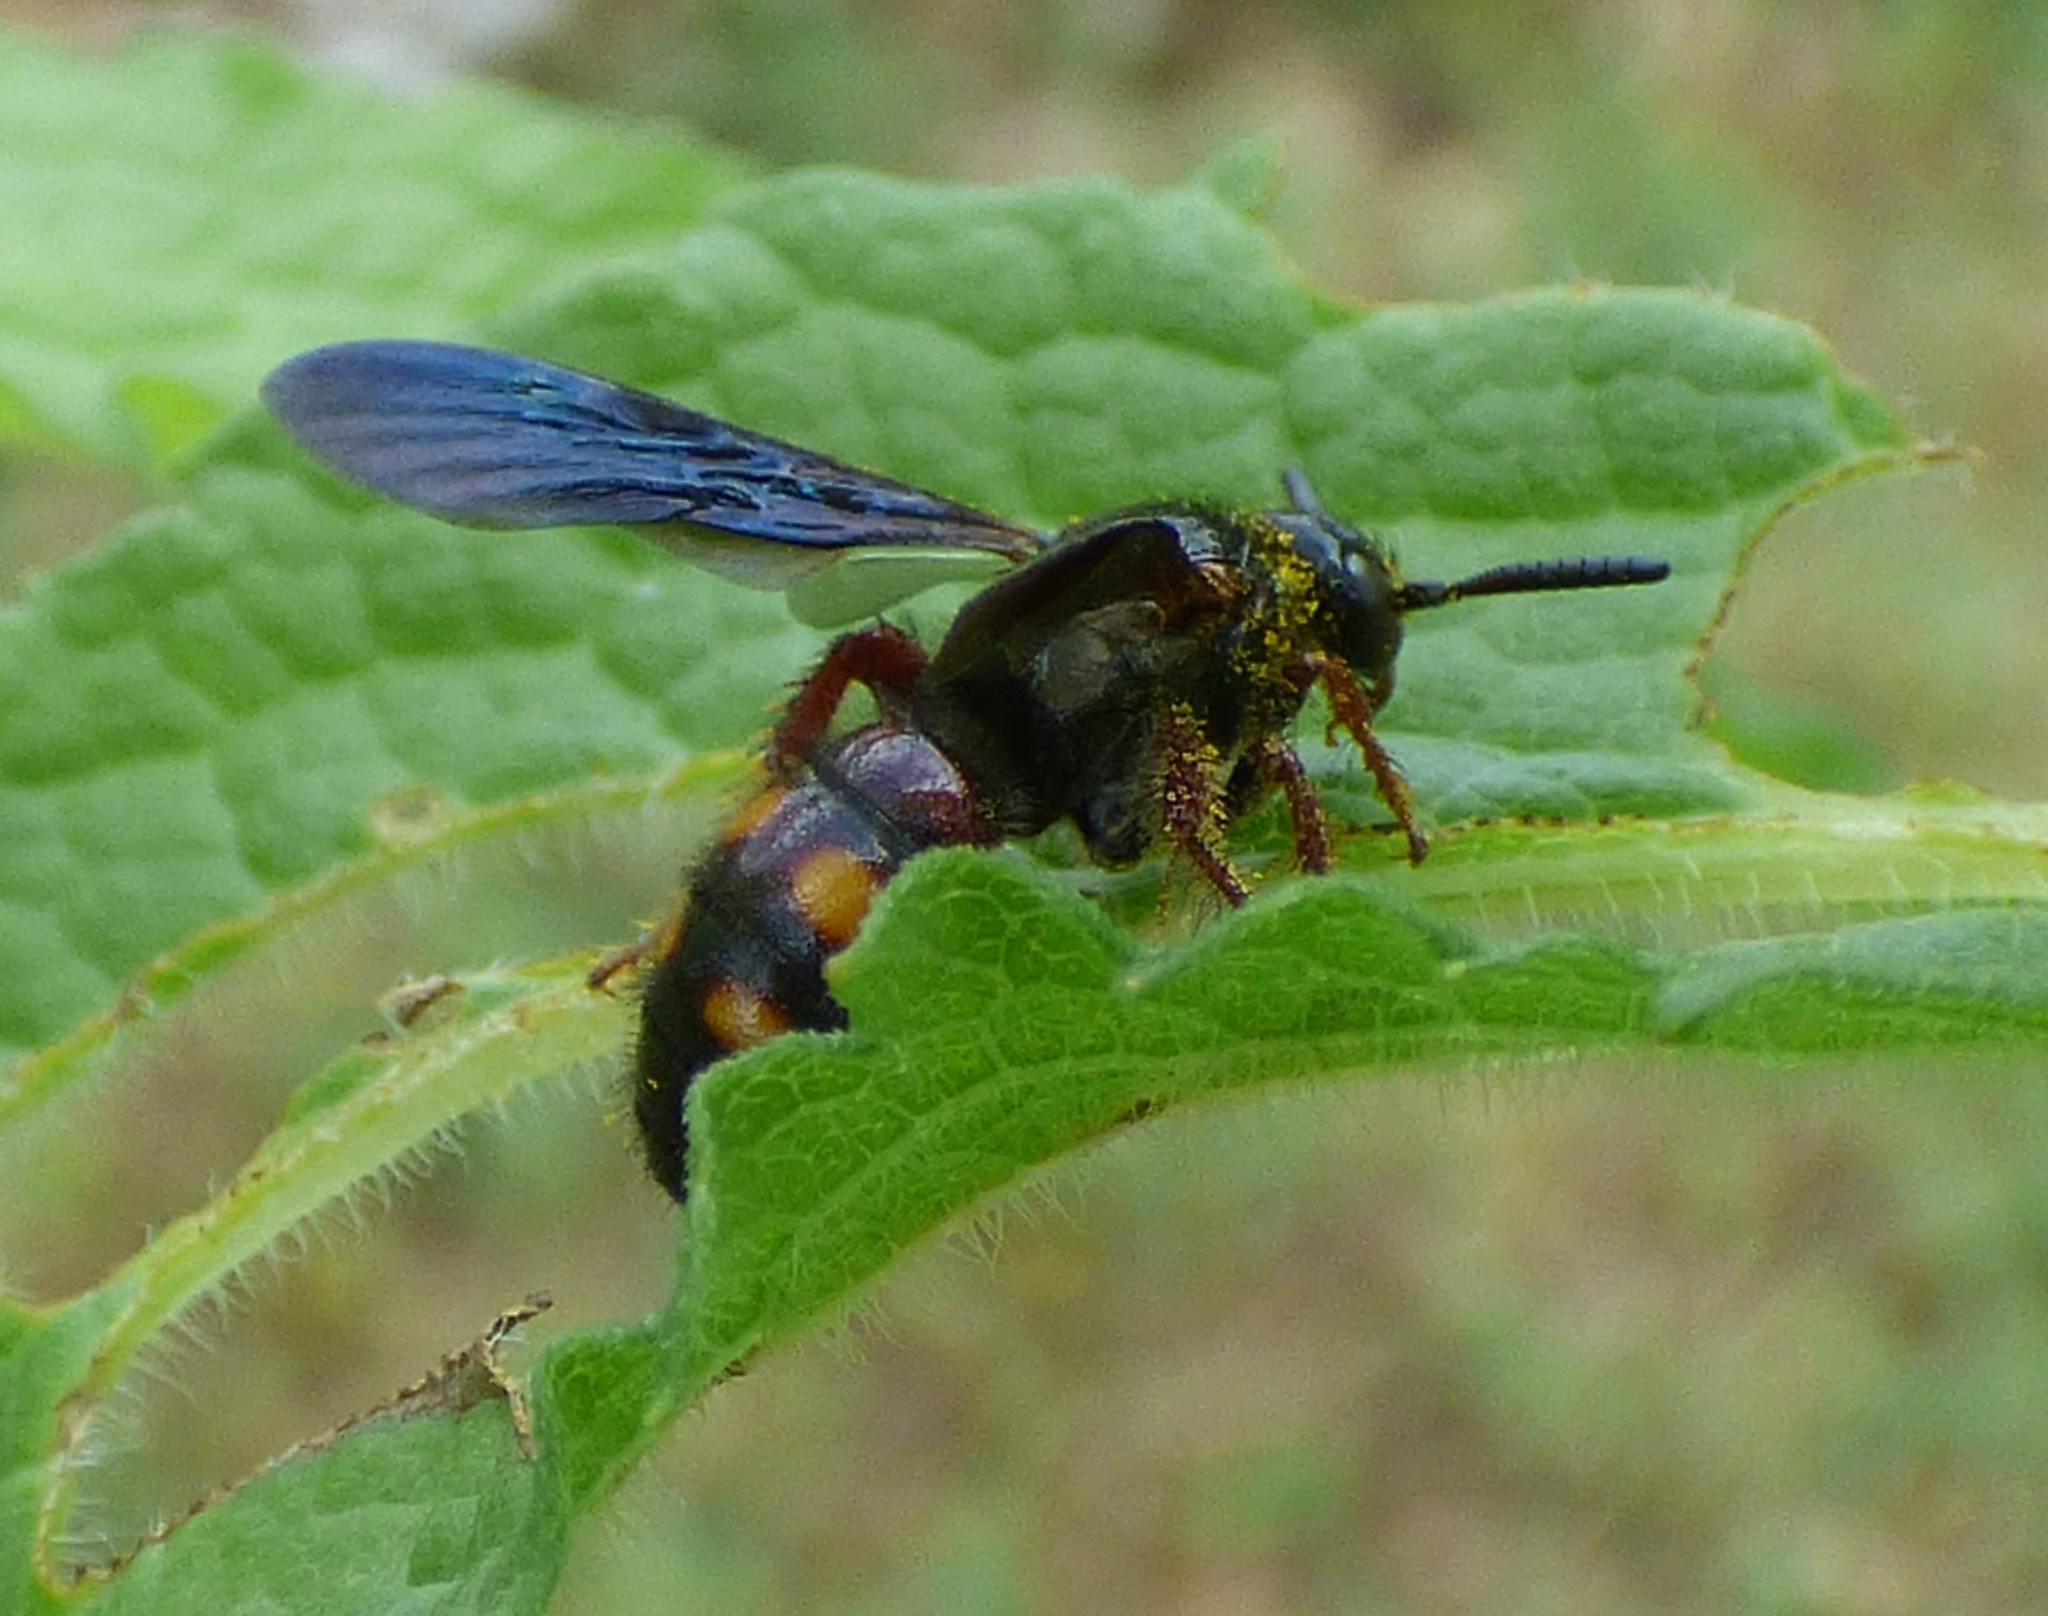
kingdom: Animalia
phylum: Arthropoda
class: Insecta
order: Hymenoptera
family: Scoliidae
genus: Scolia
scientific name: Scolia nobilitata
